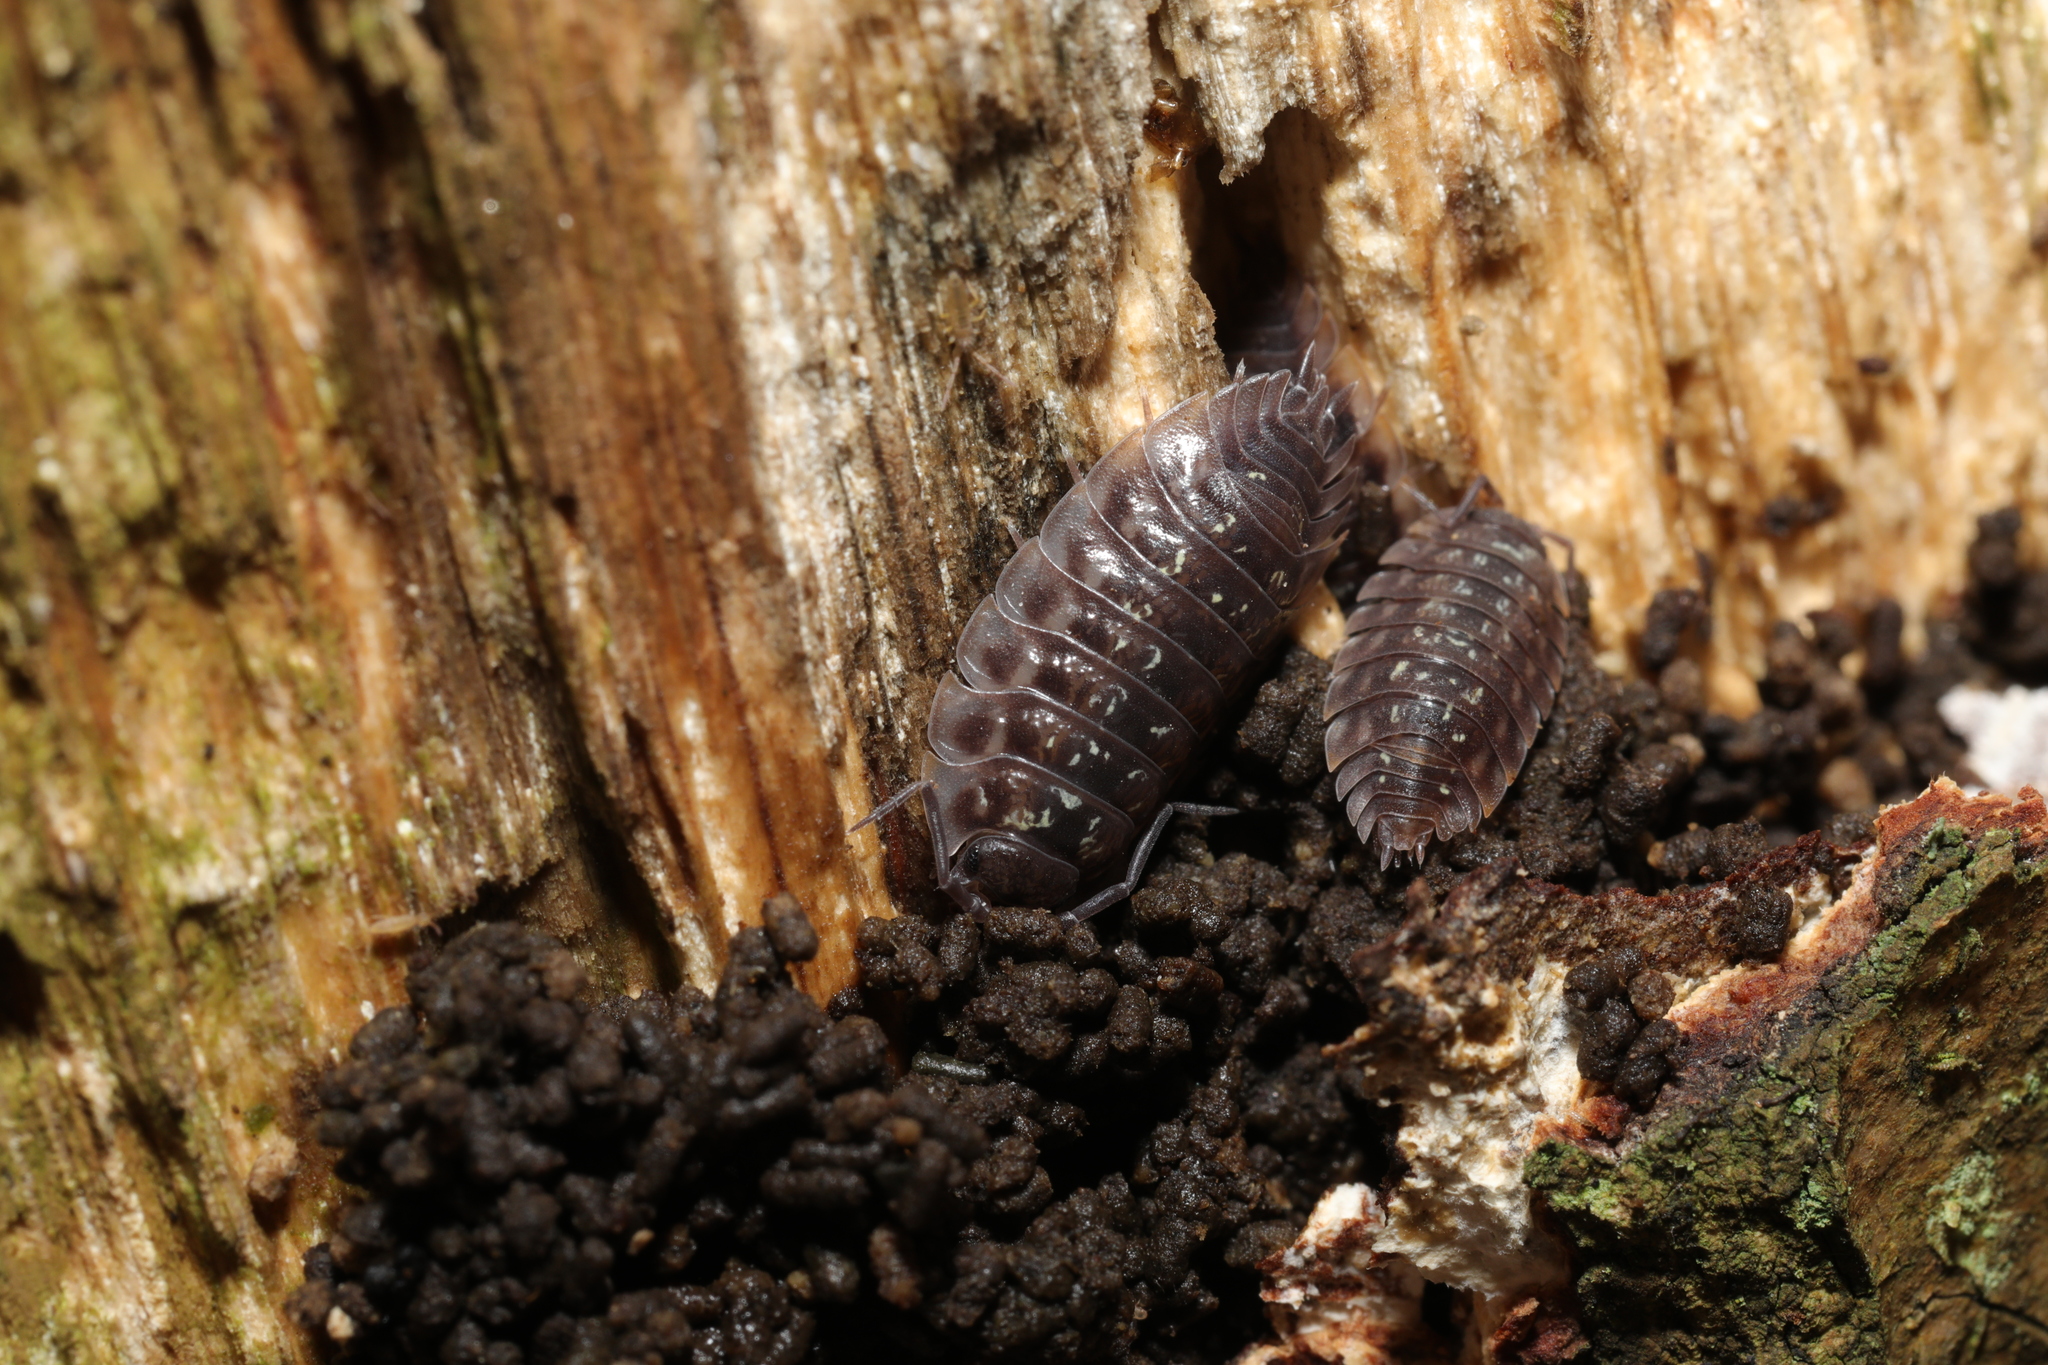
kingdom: Animalia
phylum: Arthropoda
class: Malacostraca
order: Isopoda
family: Oniscidae
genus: Oniscus
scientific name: Oniscus asellus
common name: Common shiny woodlouse
